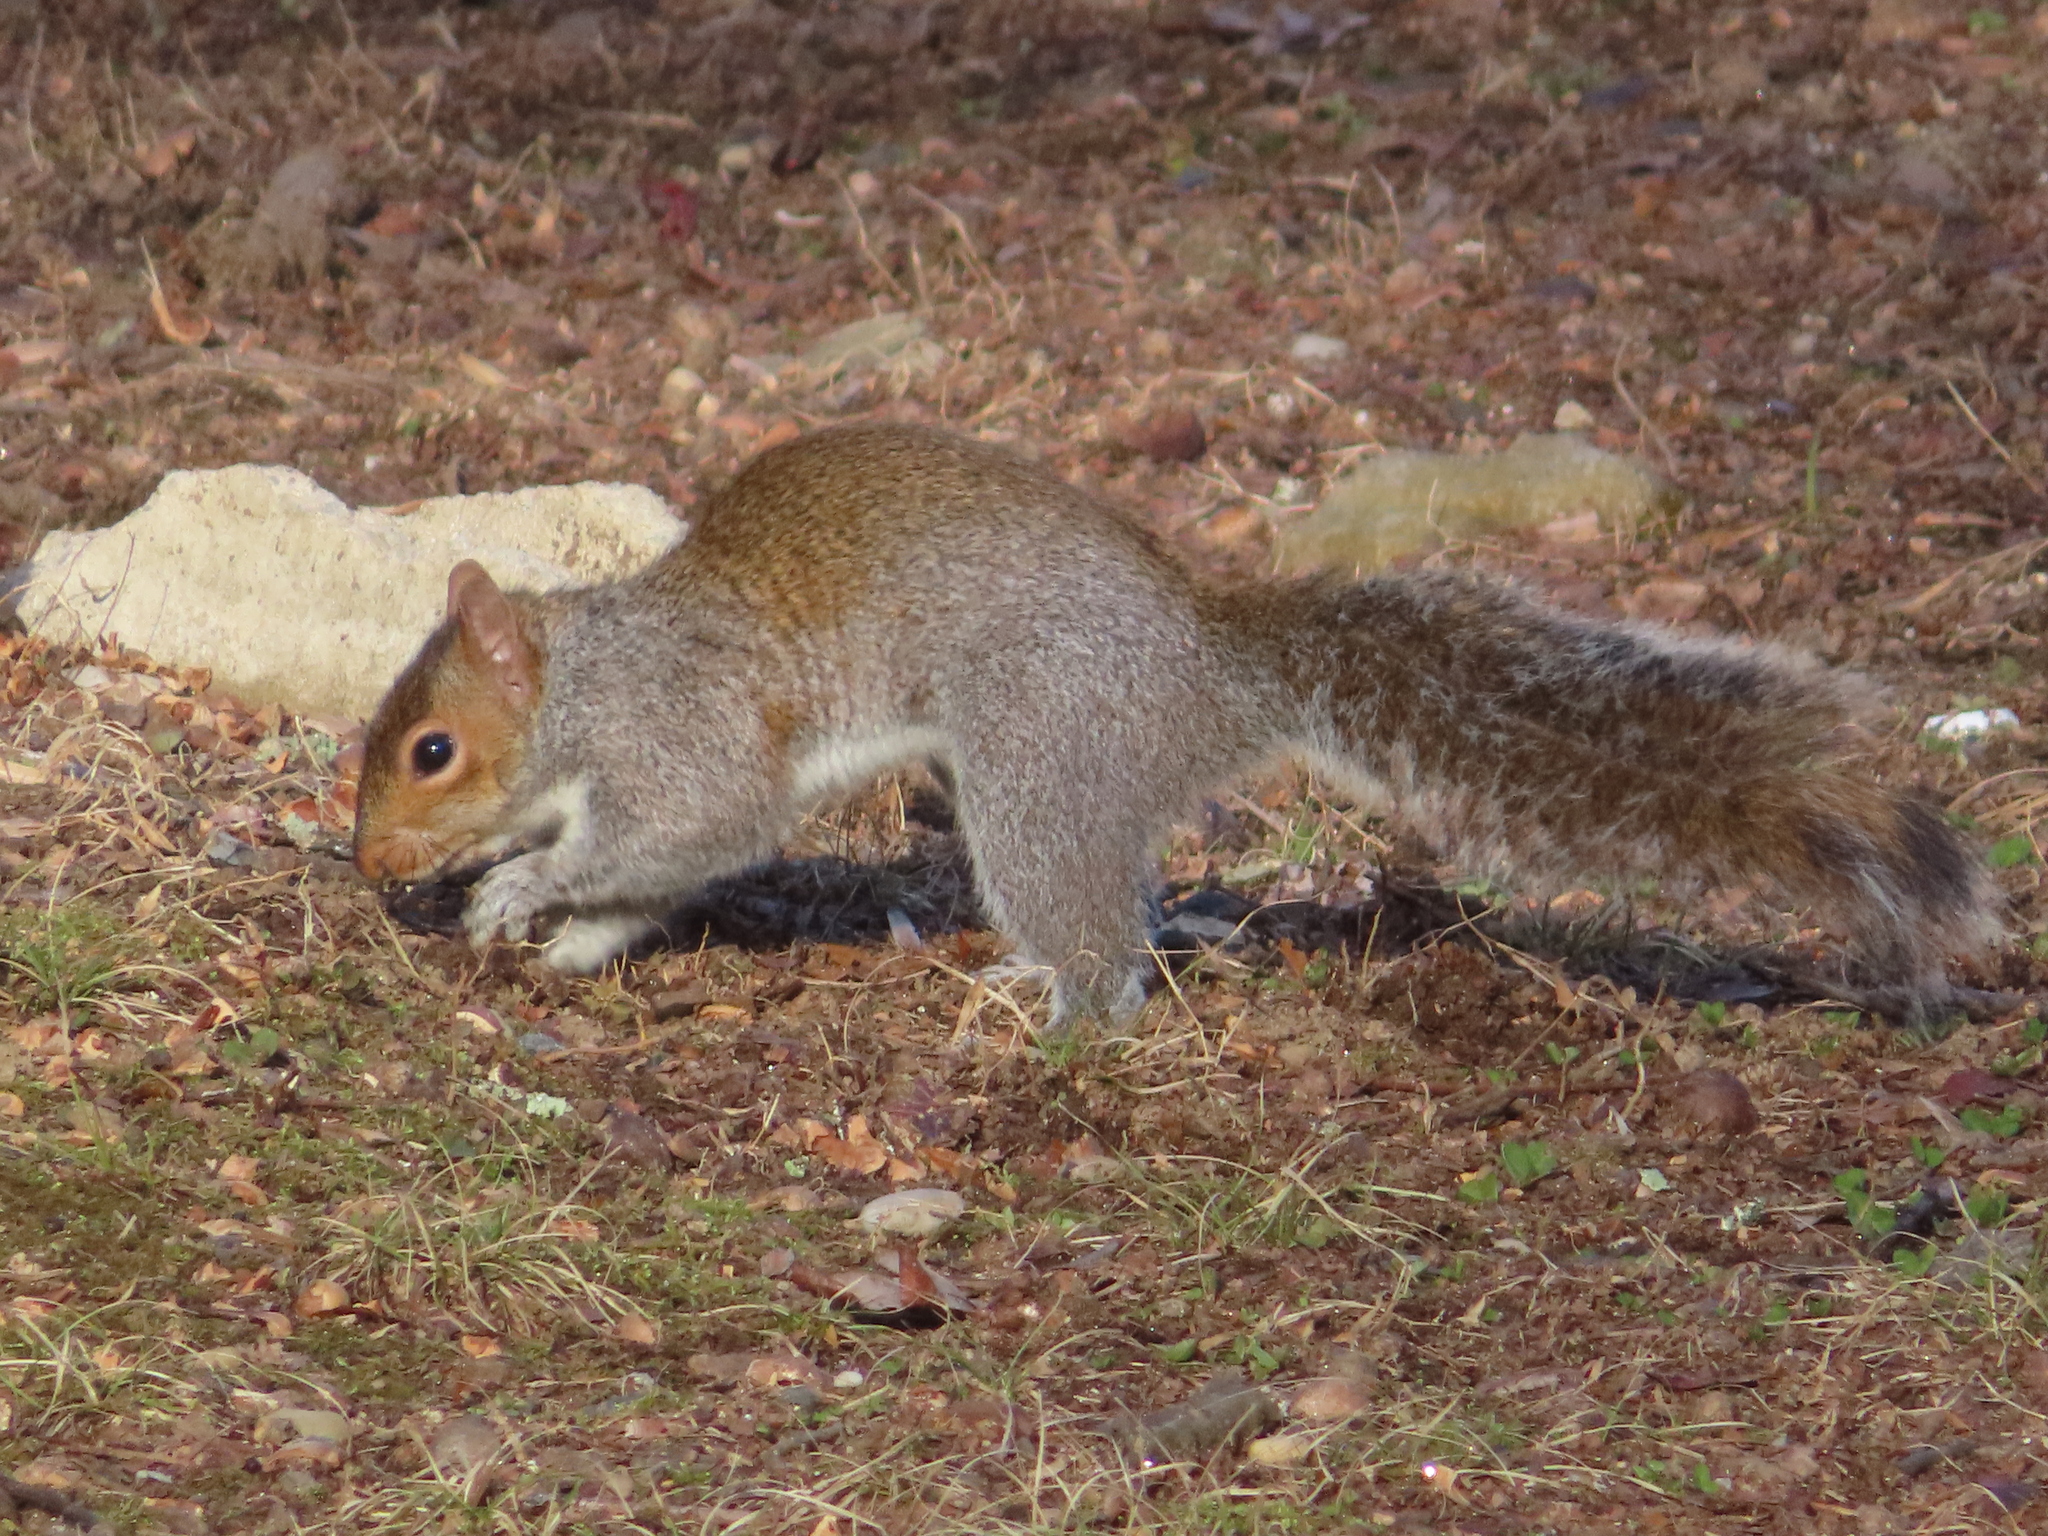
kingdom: Animalia
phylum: Chordata
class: Mammalia
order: Rodentia
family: Sciuridae
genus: Sciurus
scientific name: Sciurus carolinensis
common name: Eastern gray squirrel
